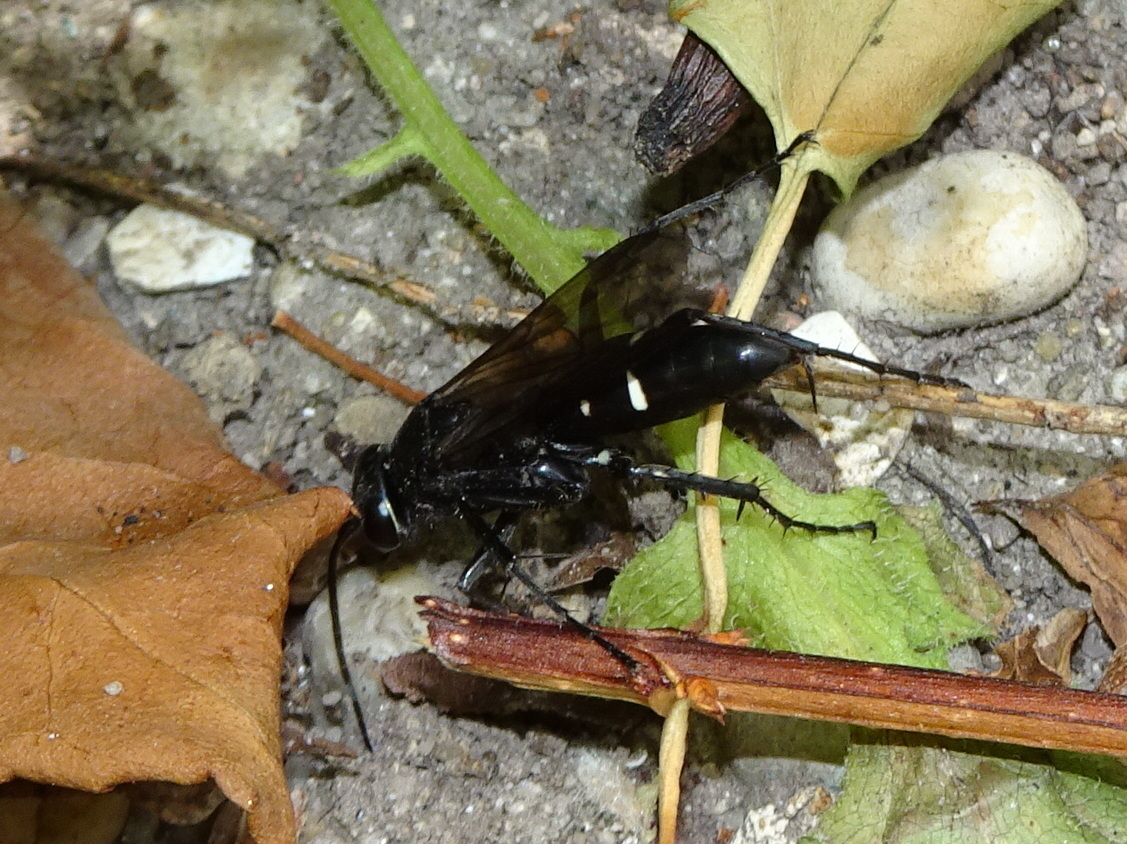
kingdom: Animalia
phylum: Arthropoda
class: Insecta
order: Hymenoptera
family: Pompilidae
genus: Episyron
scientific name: Episyron biguttatus
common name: Two-spotted spider wasp
